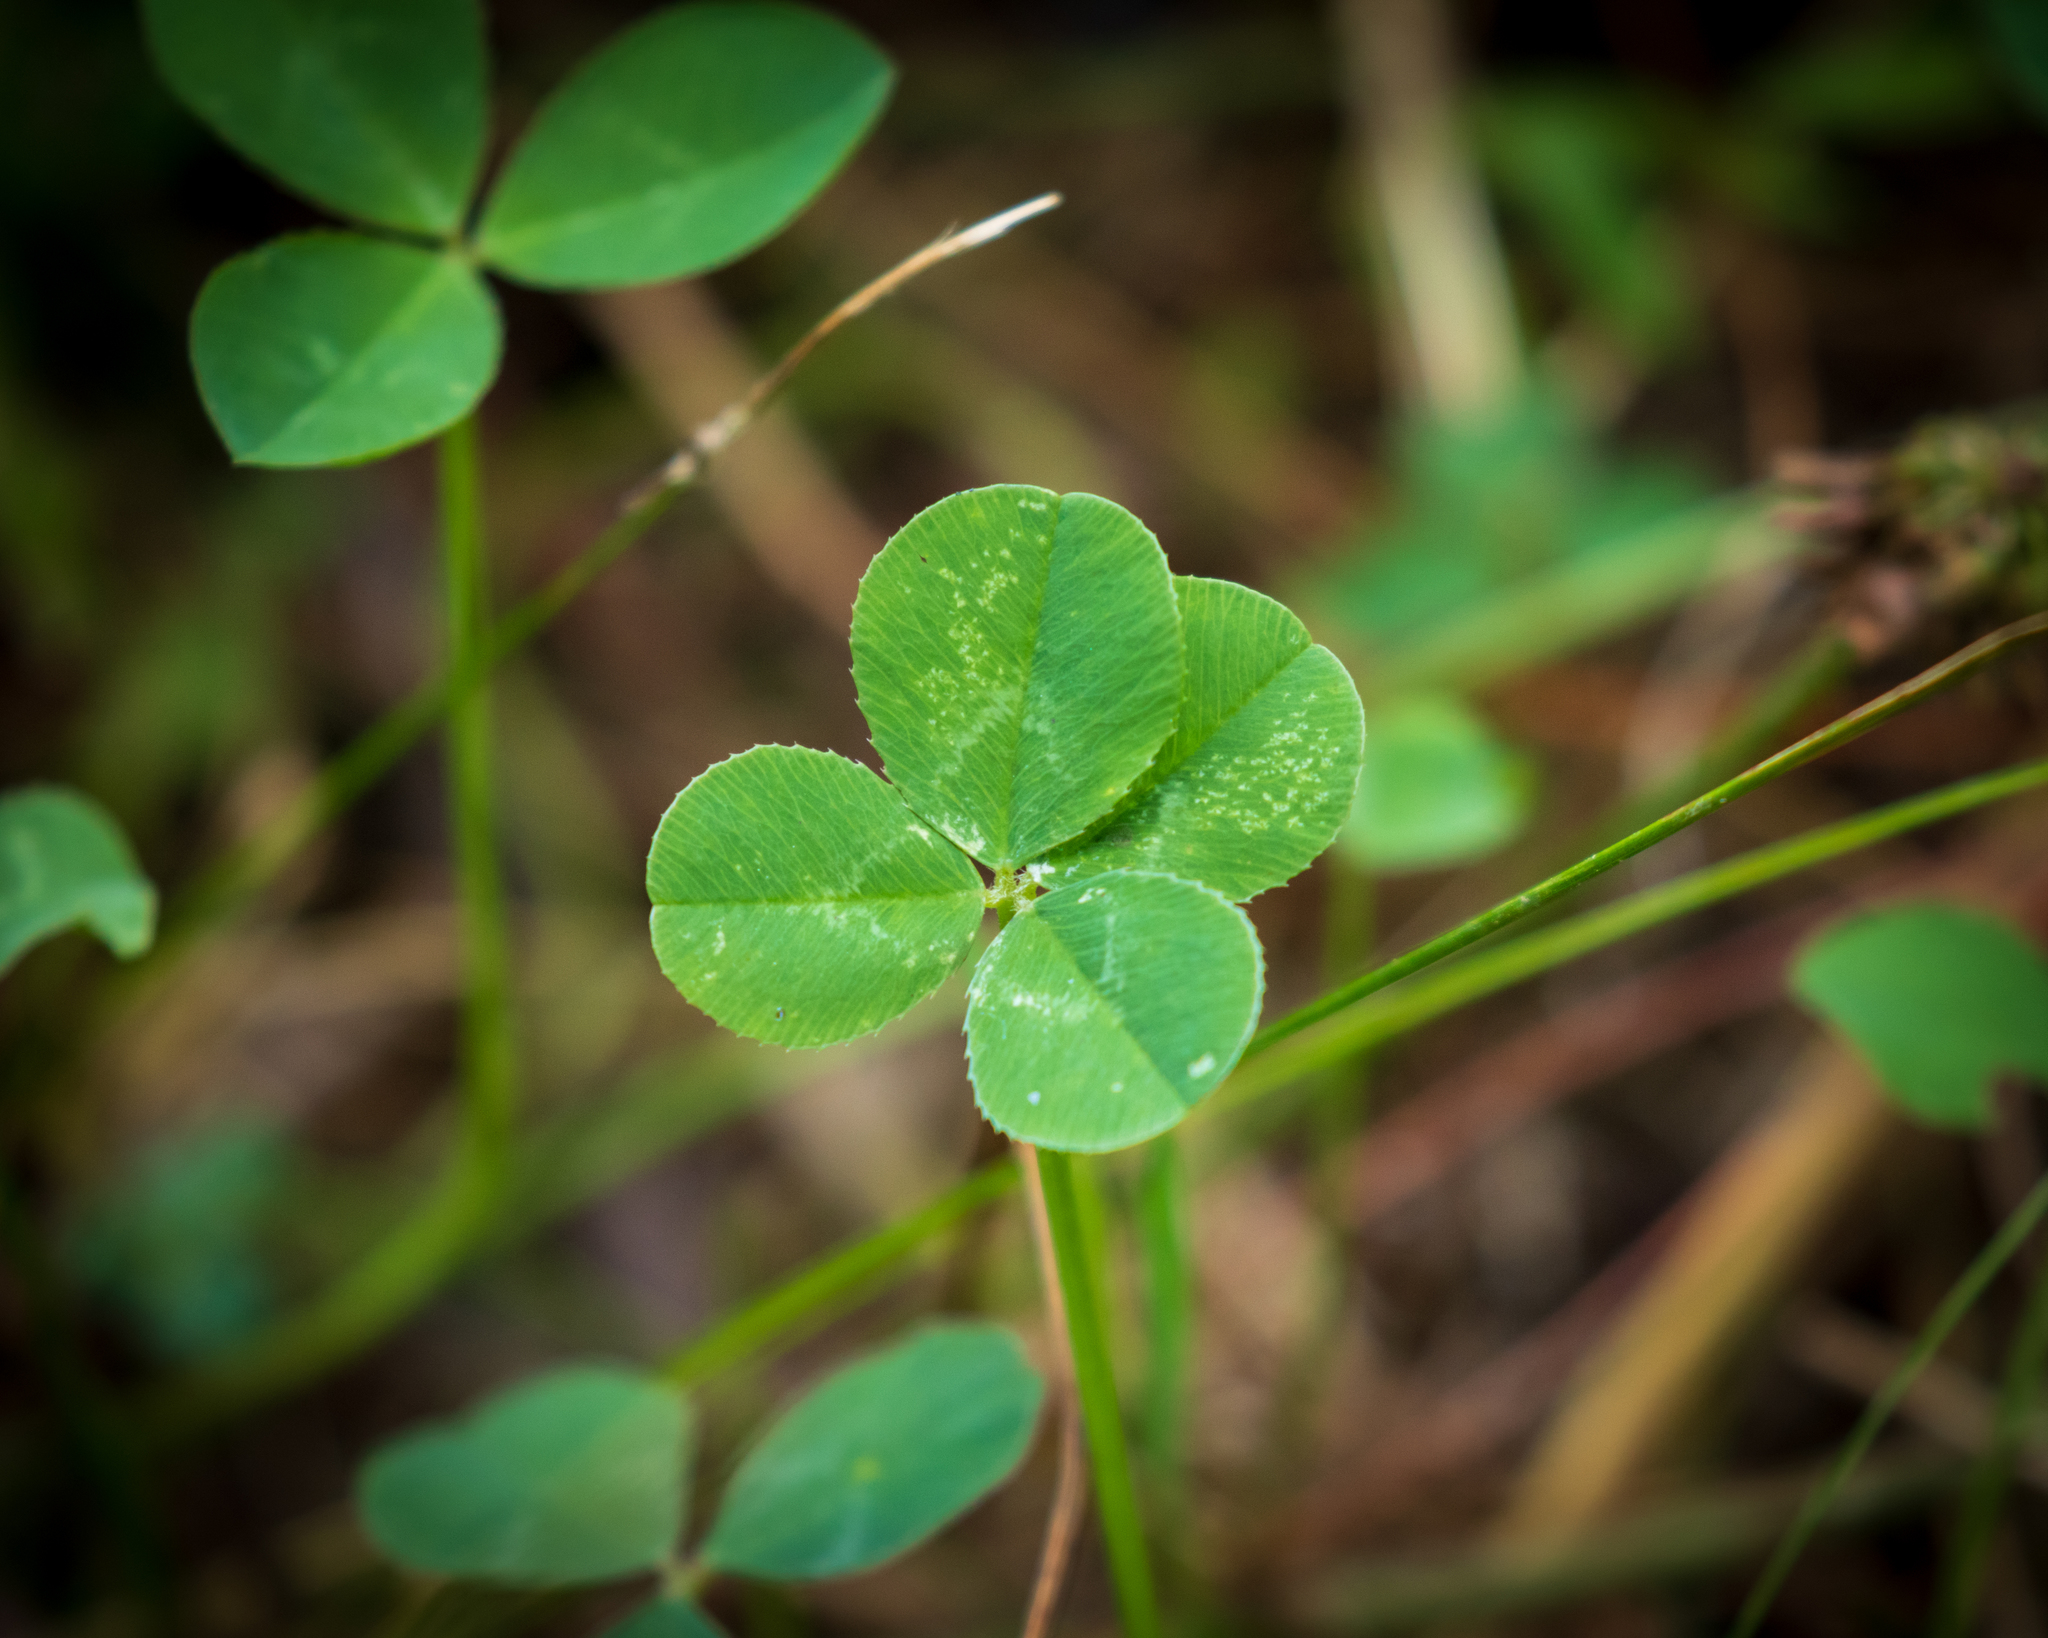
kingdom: Plantae
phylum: Tracheophyta
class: Magnoliopsida
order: Fabales
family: Fabaceae
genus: Trifolium
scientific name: Trifolium repens
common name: White clover
